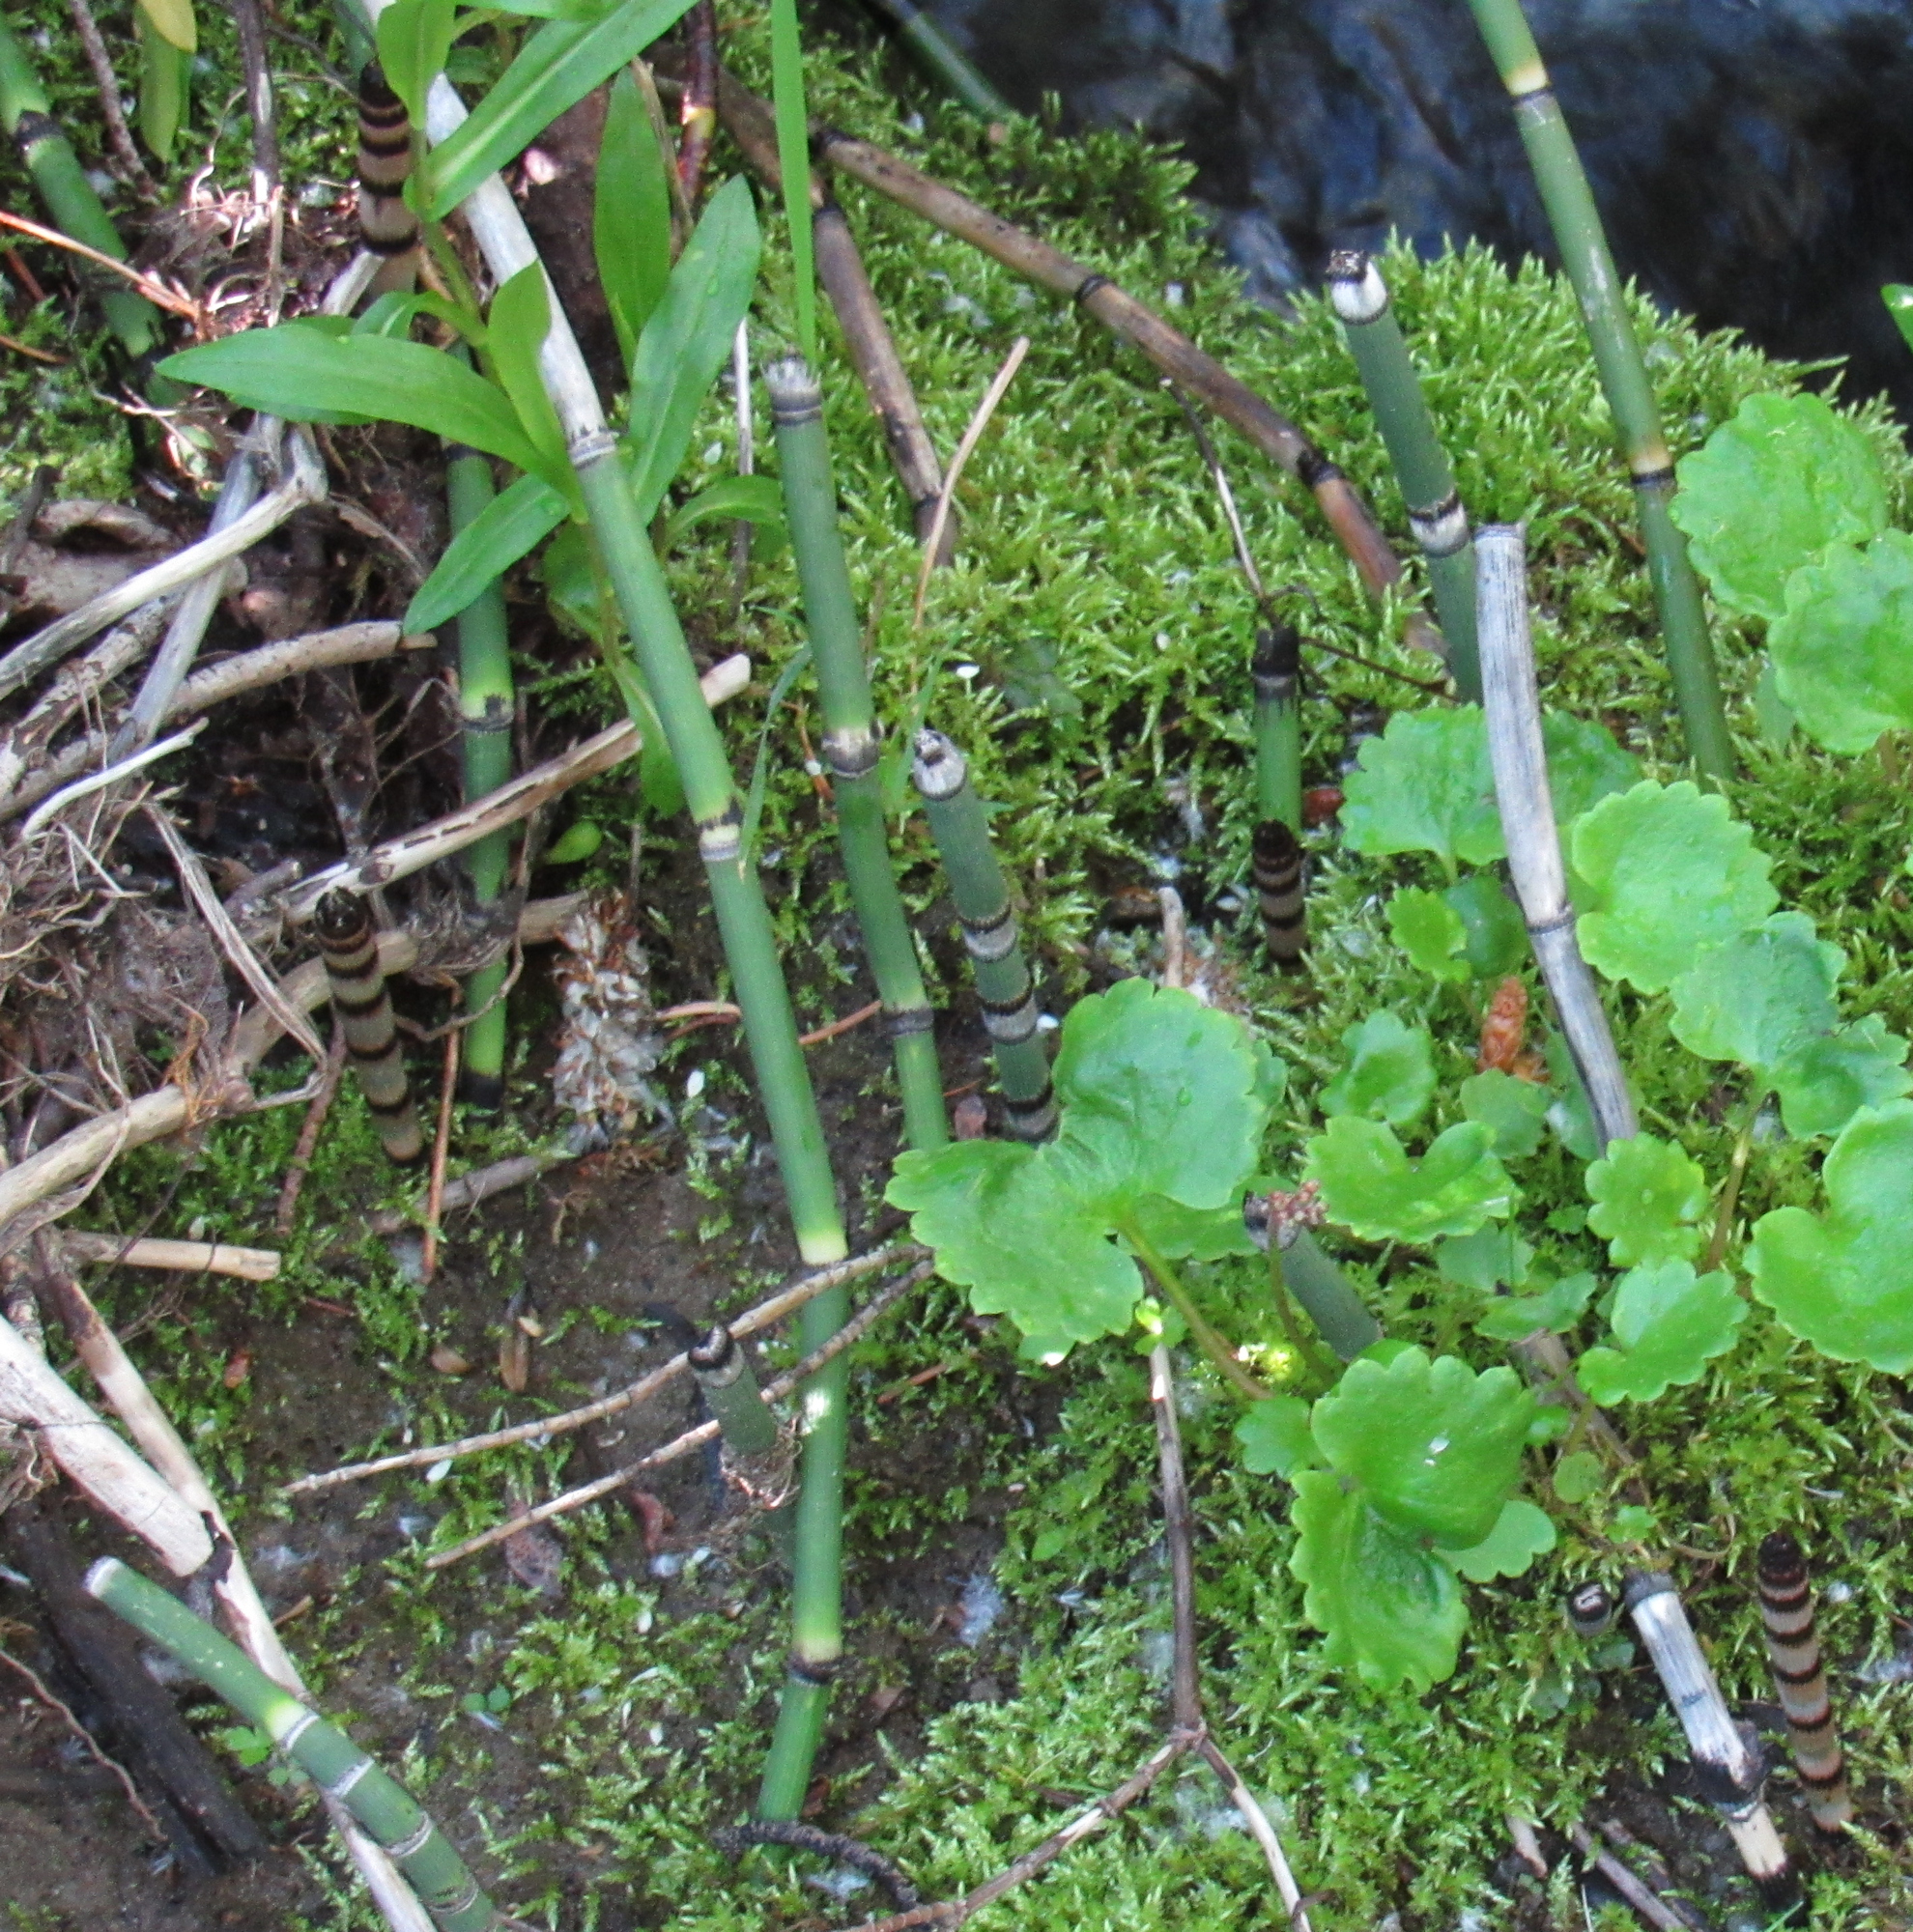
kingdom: Plantae
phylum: Tracheophyta
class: Polypodiopsida
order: Equisetales
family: Equisetaceae
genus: Equisetum
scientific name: Equisetum praealtum
